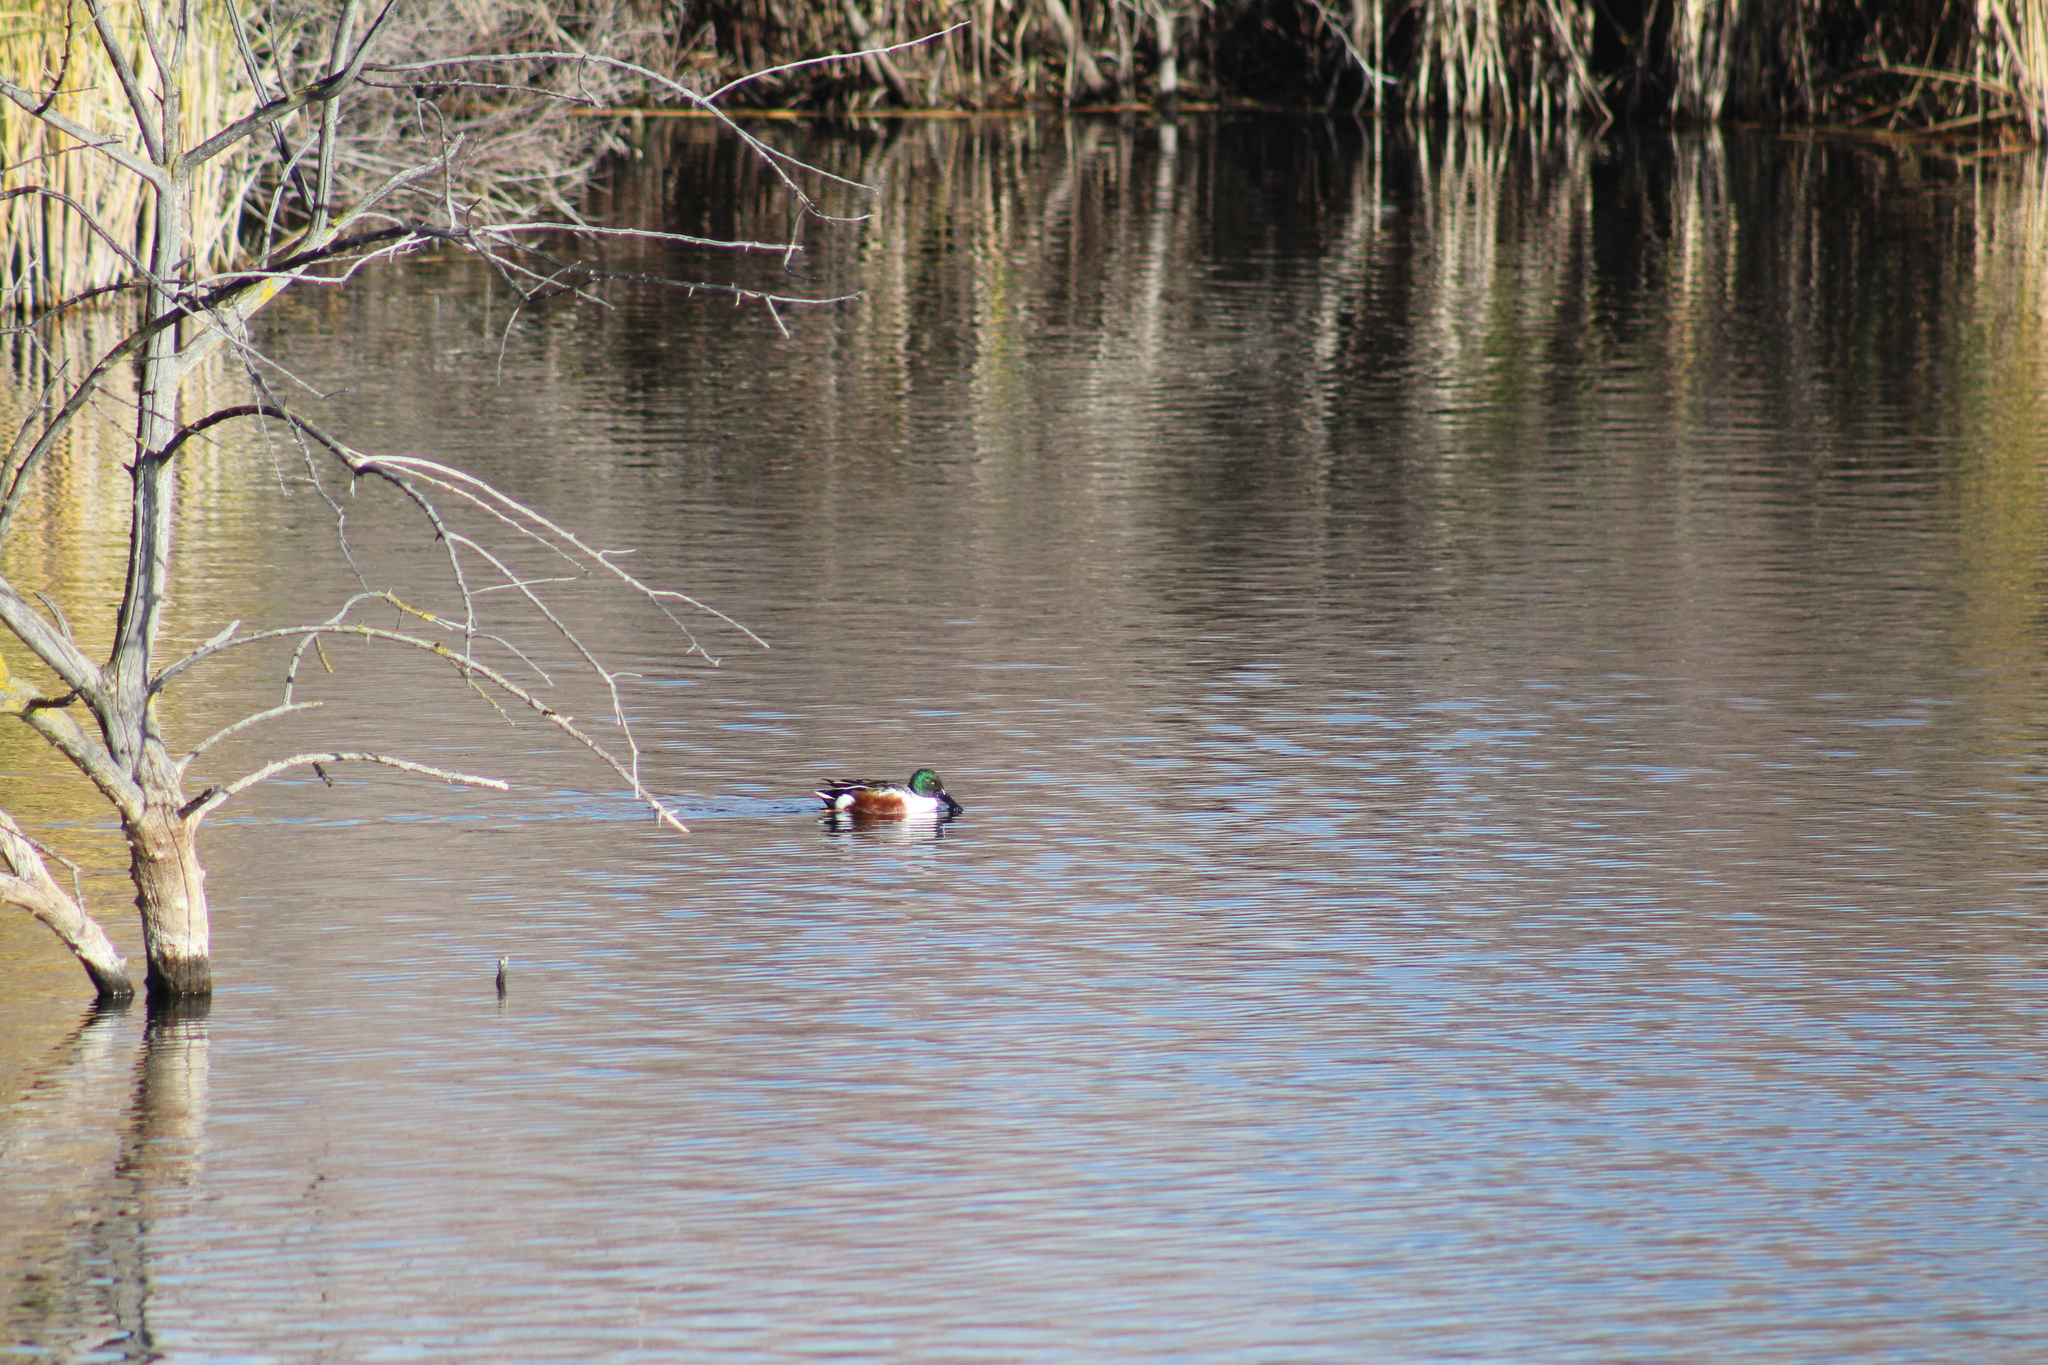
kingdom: Animalia
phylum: Chordata
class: Aves
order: Anseriformes
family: Anatidae
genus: Spatula
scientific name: Spatula clypeata
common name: Northern shoveler
